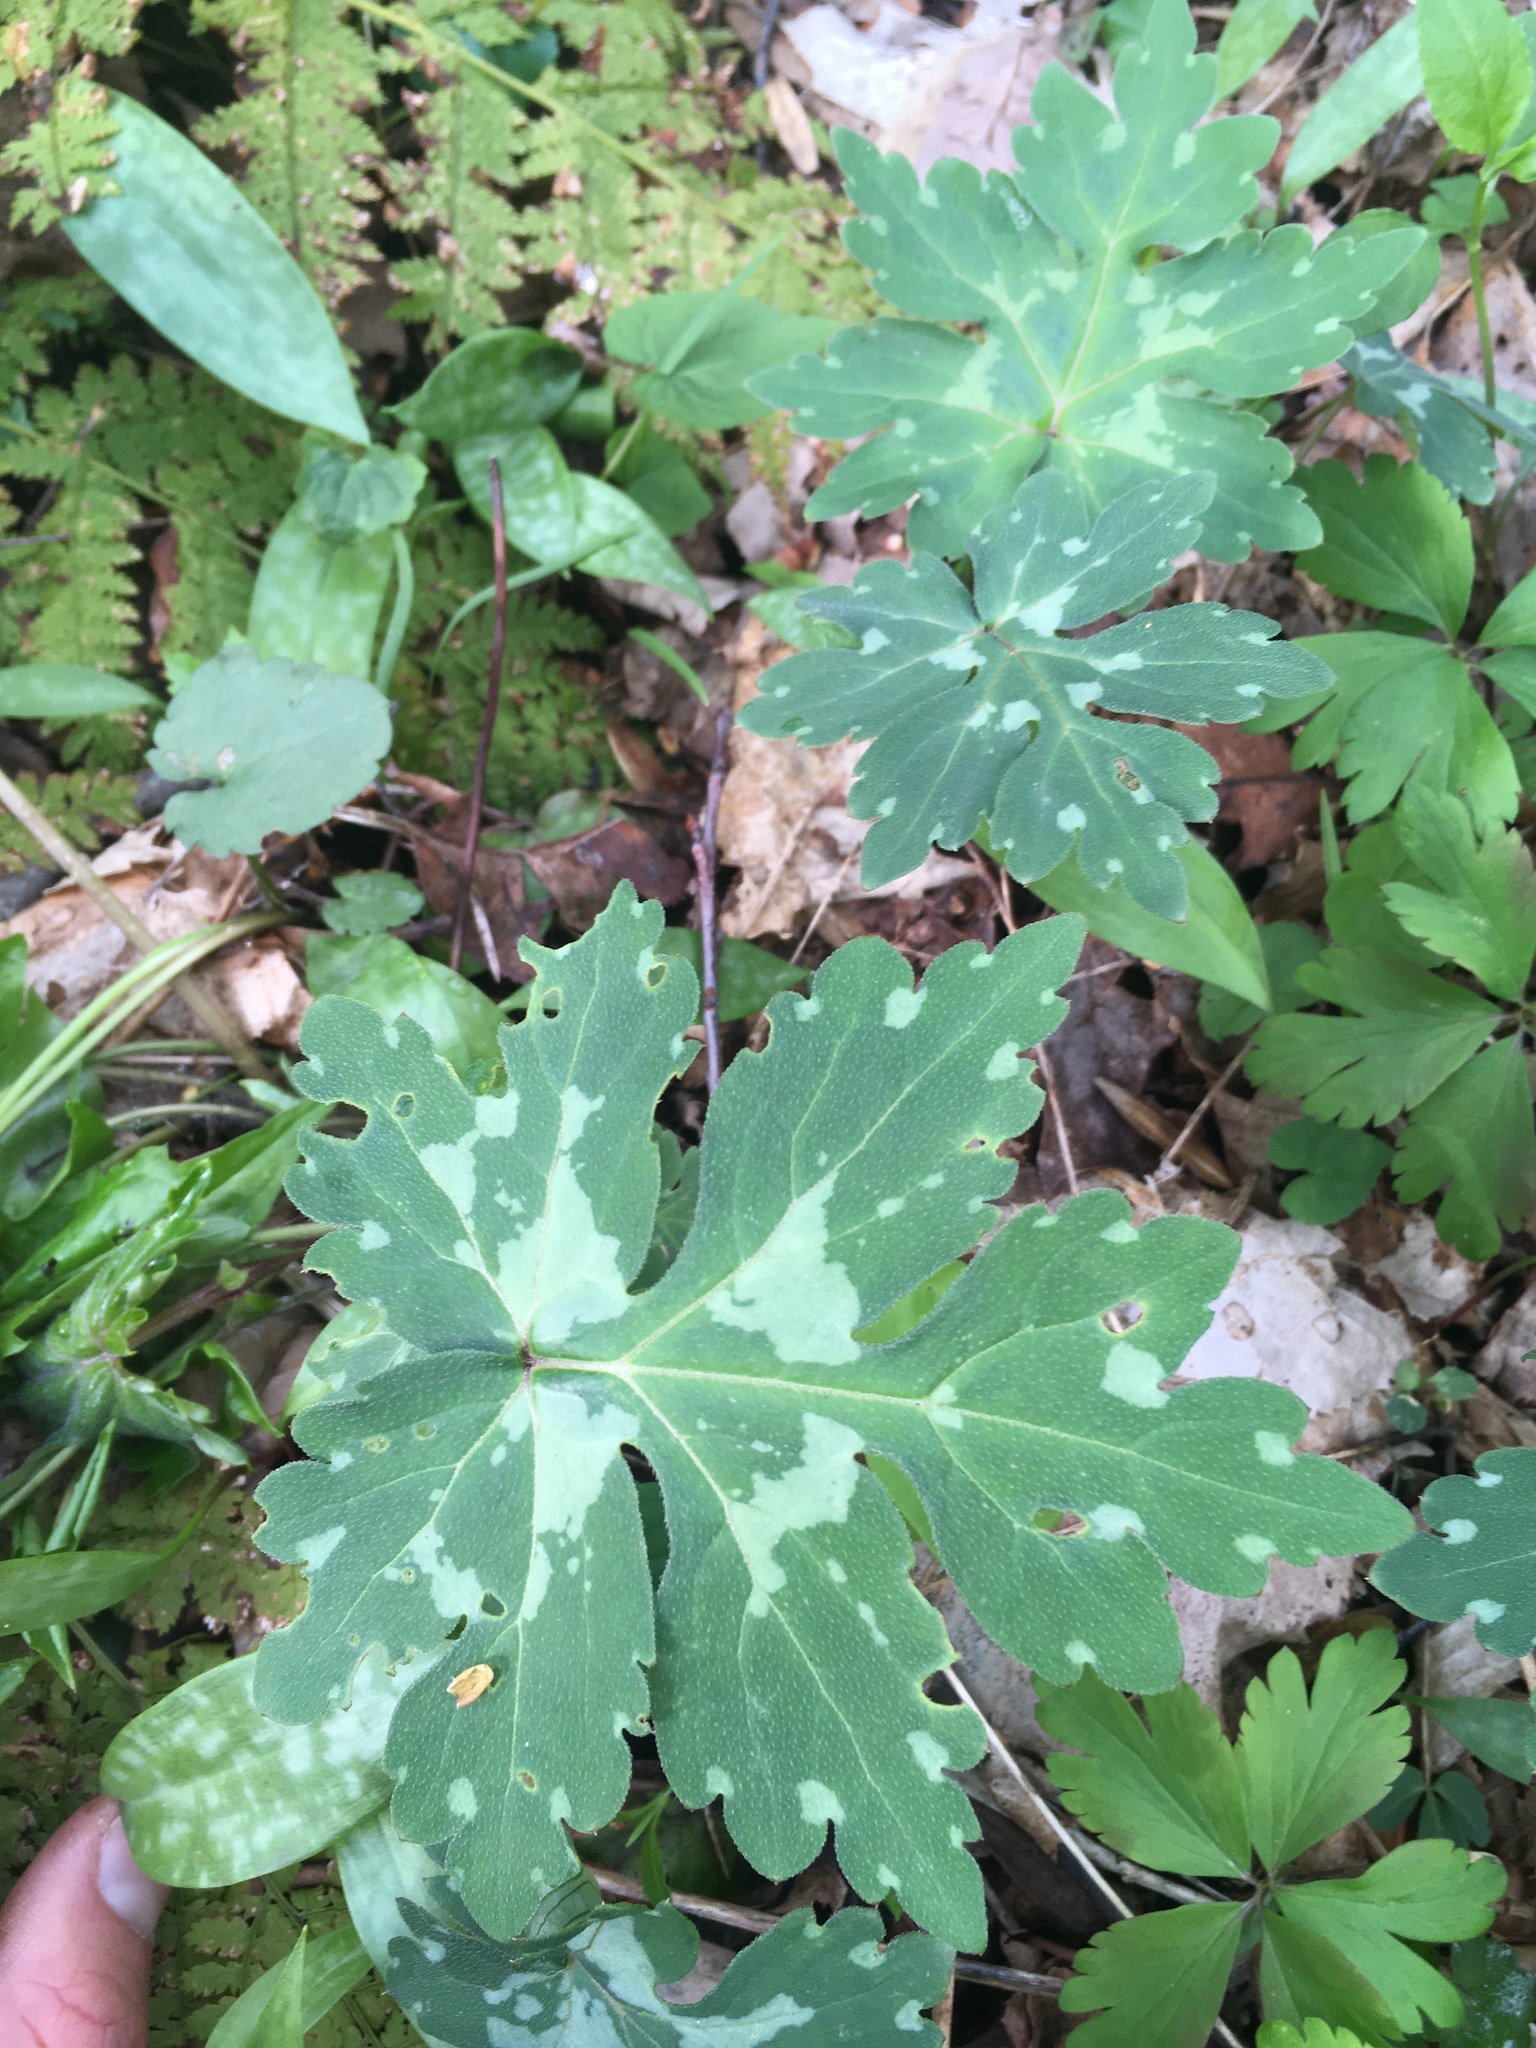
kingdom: Plantae
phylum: Tracheophyta
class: Magnoliopsida
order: Boraginales
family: Hydrophyllaceae
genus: Hydrophyllum
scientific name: Hydrophyllum canadense
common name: Canada waterleaf
